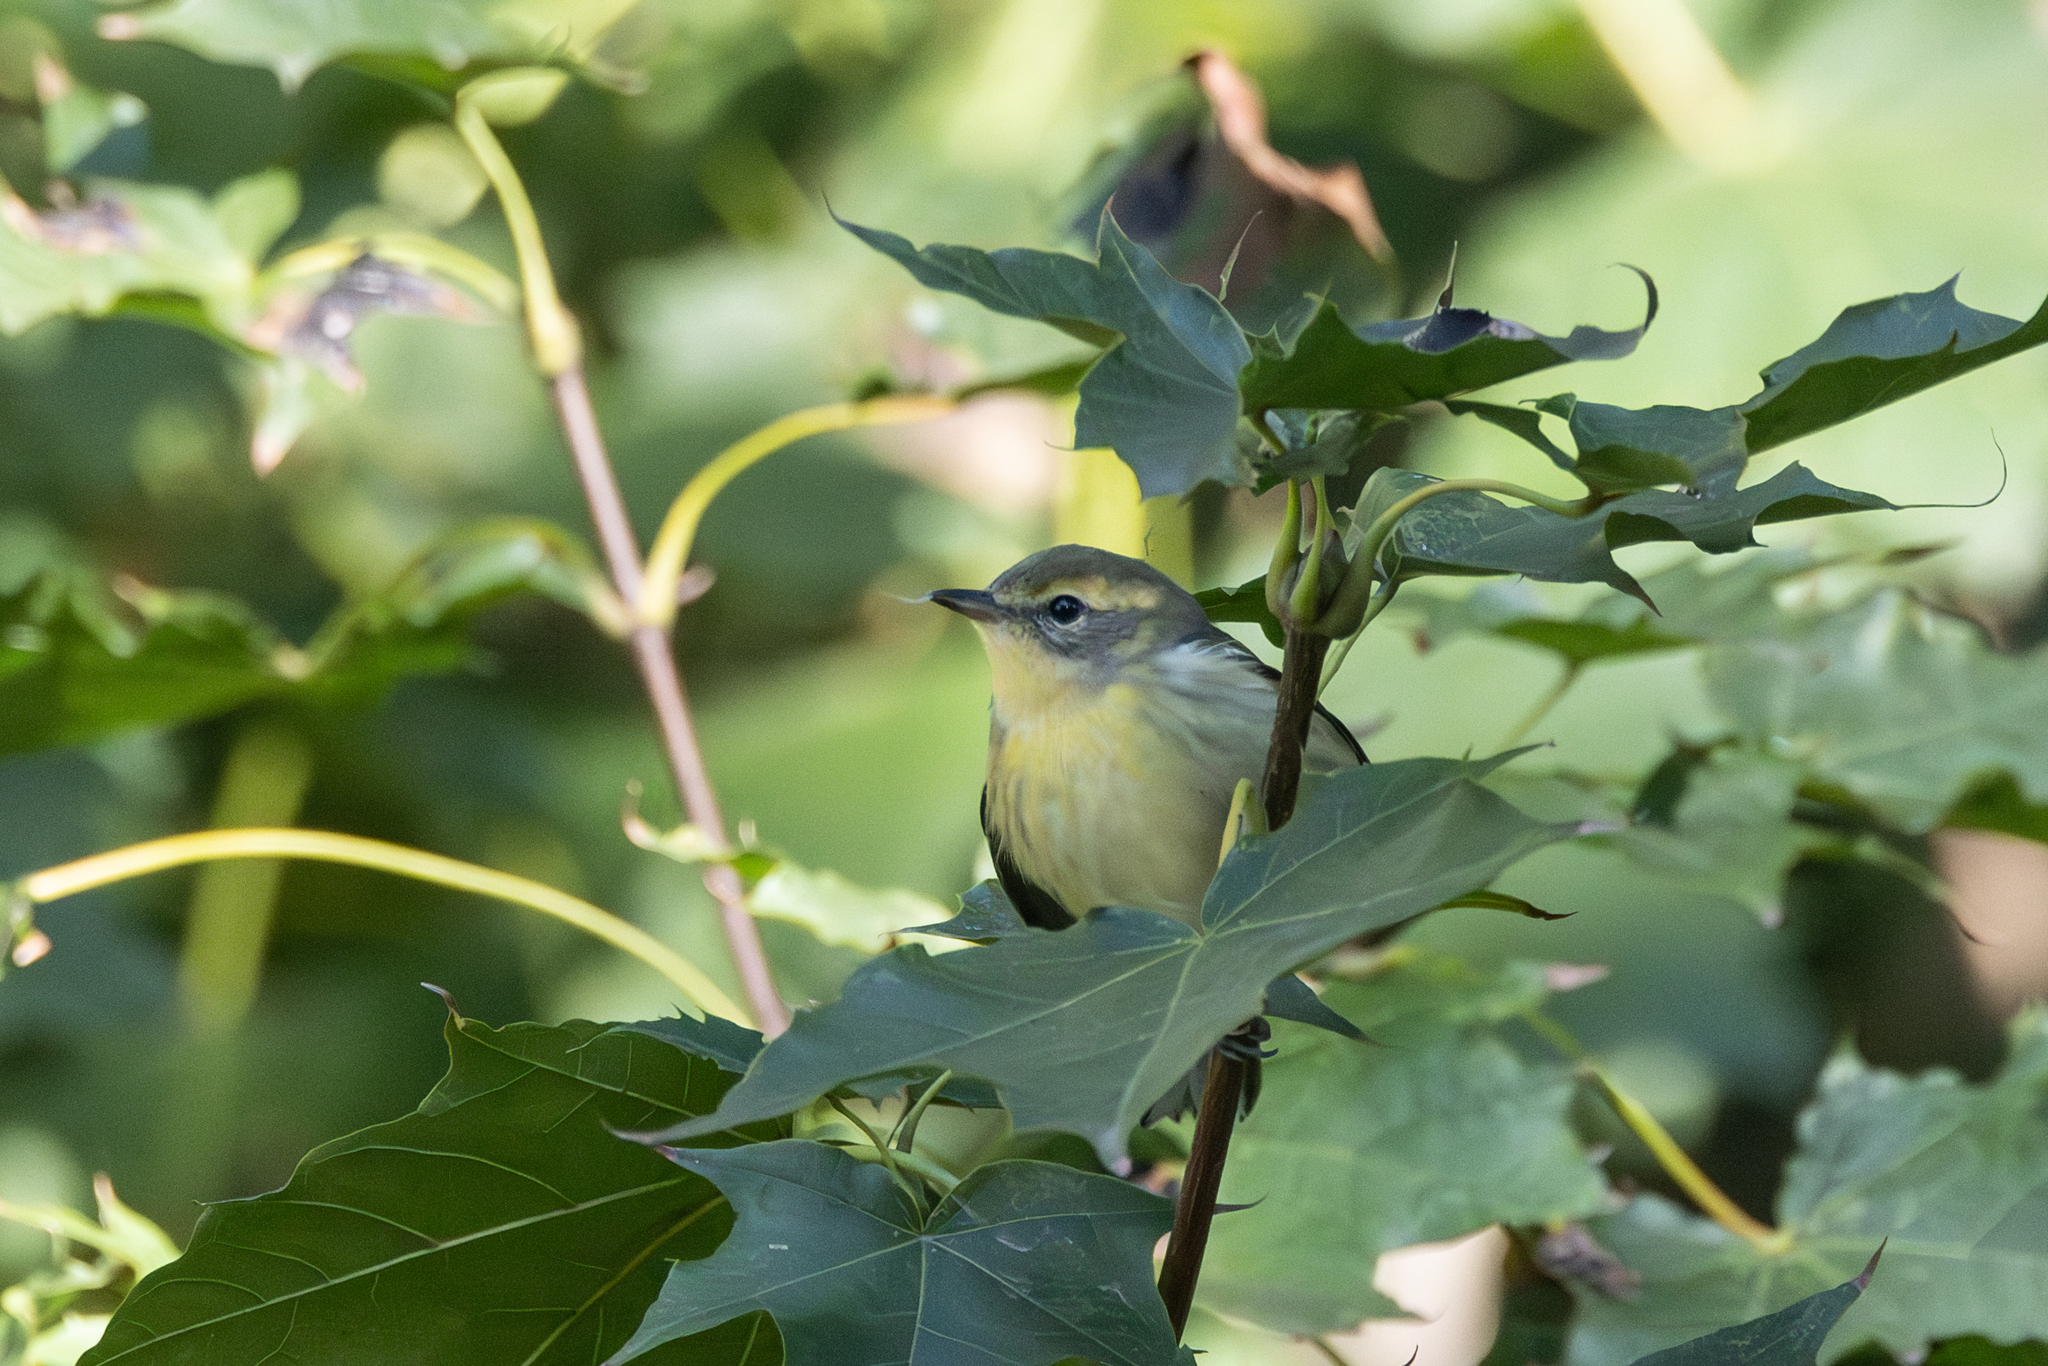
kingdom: Animalia
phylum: Chordata
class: Aves
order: Passeriformes
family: Parulidae
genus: Setophaga
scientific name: Setophaga fusca
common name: Blackburnian warbler
